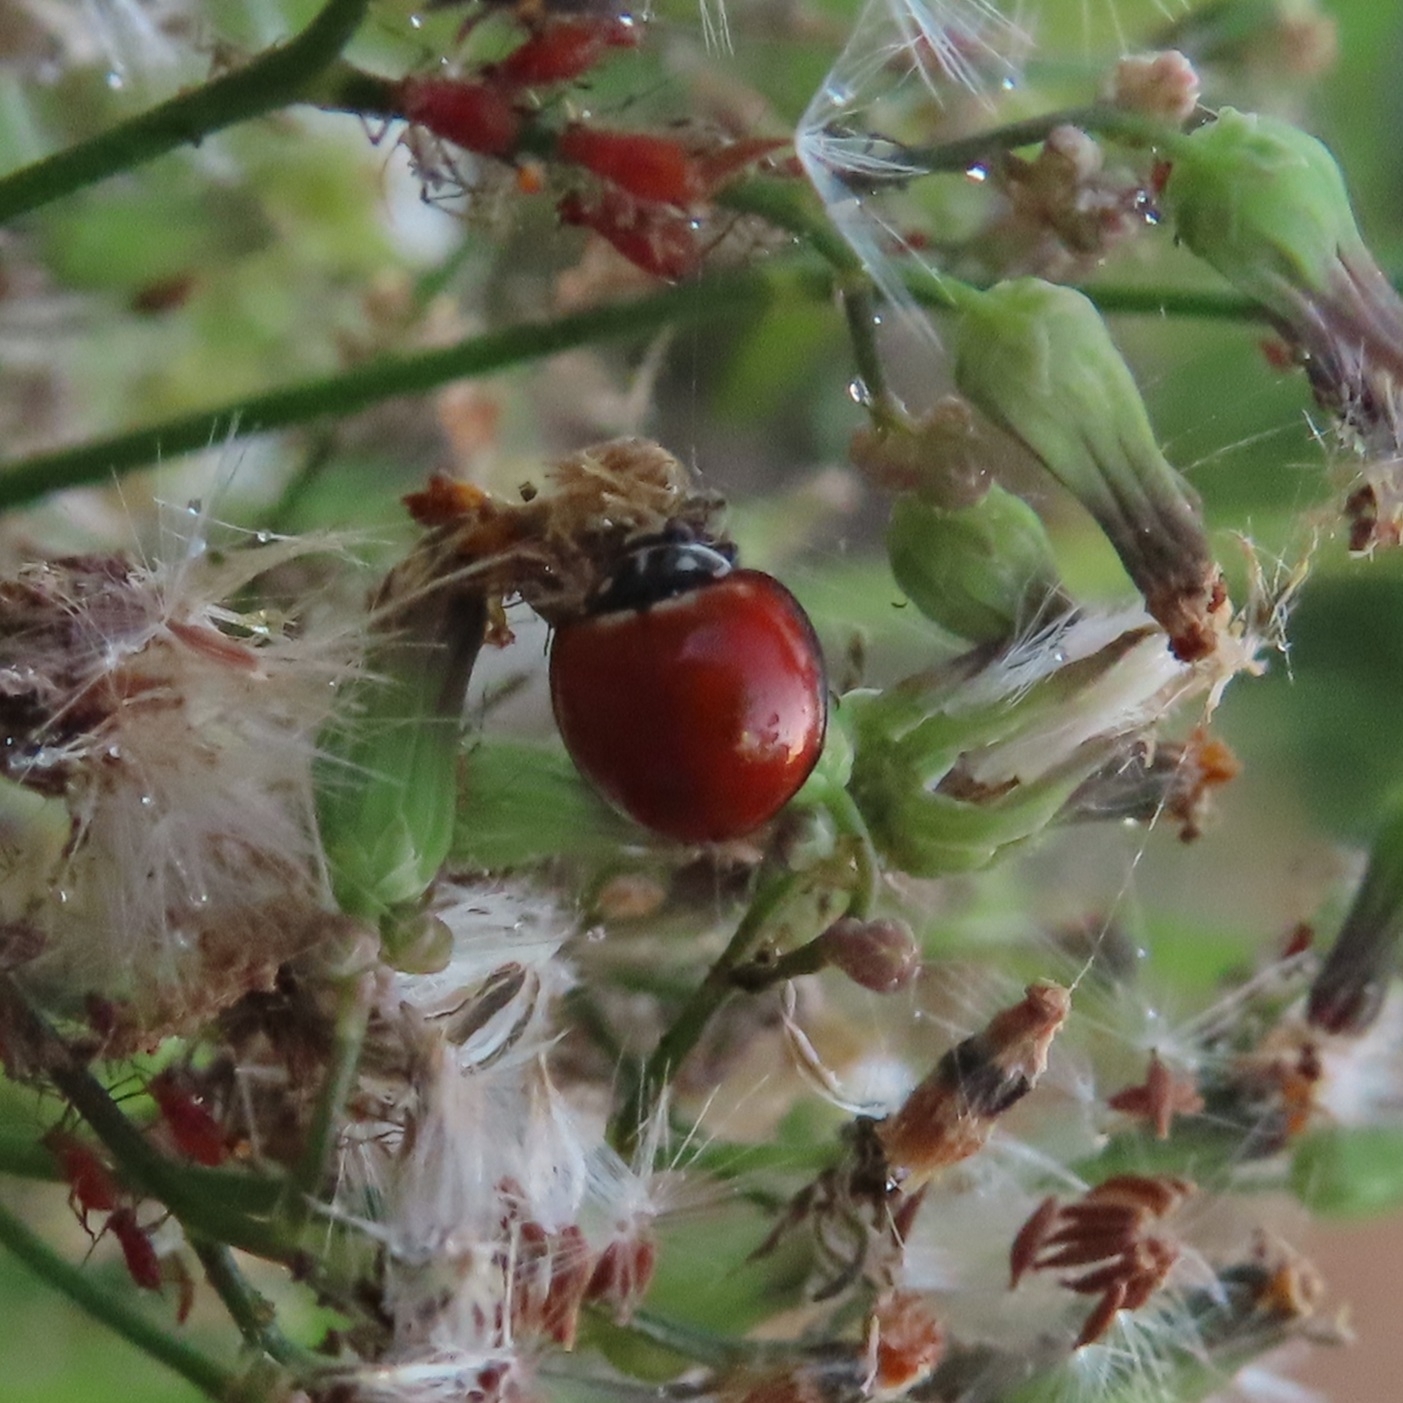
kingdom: Animalia
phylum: Arthropoda
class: Insecta
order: Coleoptera
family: Coccinellidae
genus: Cycloneda
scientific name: Cycloneda sanguinea
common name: Ladybird beetle
